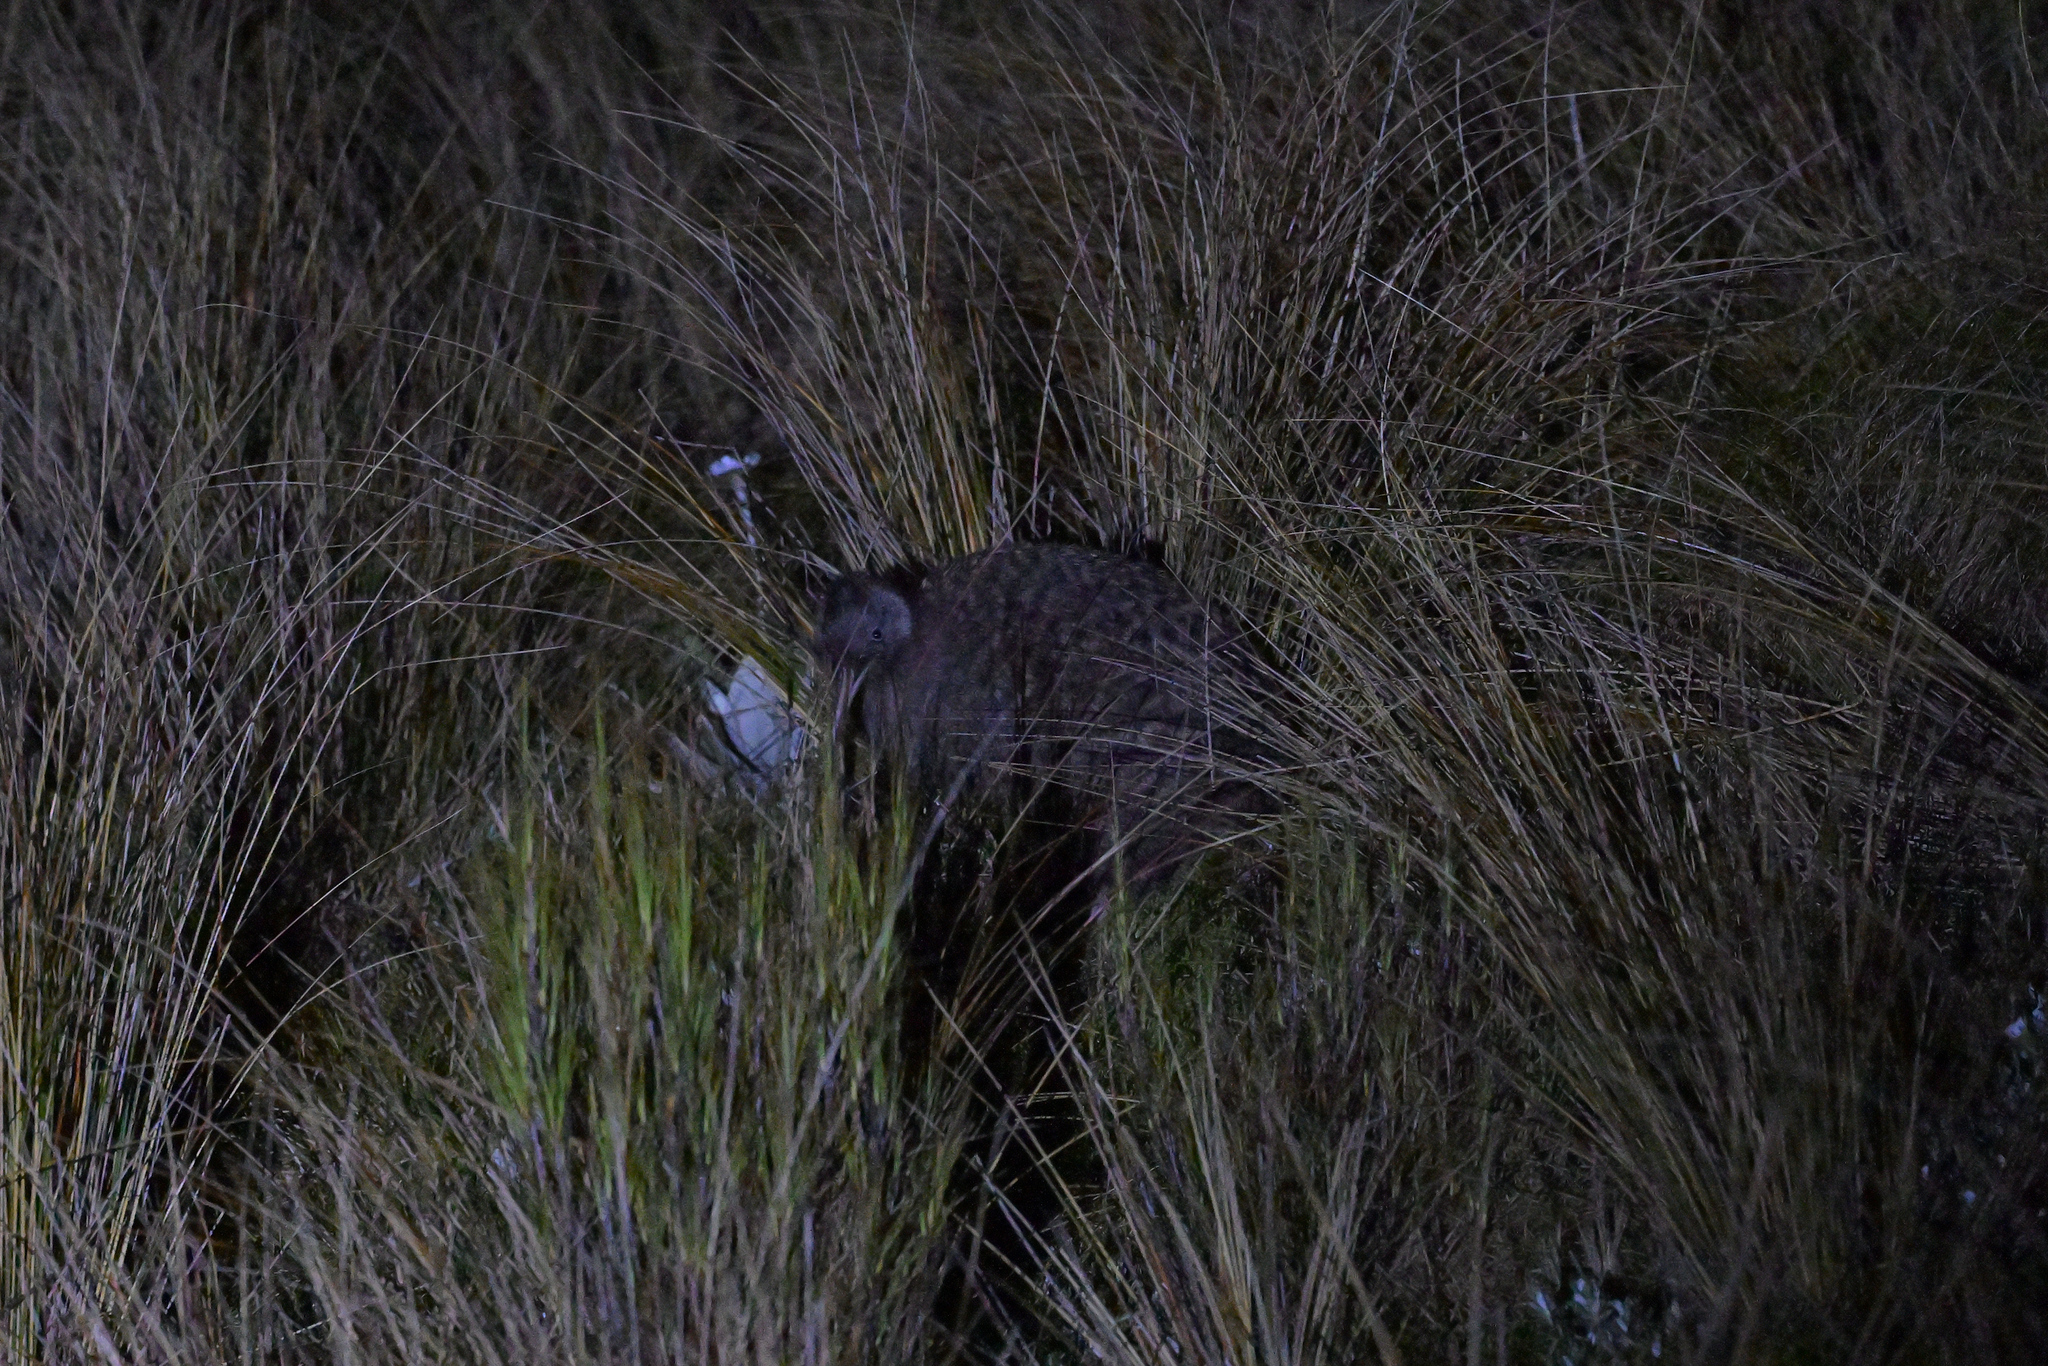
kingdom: Animalia
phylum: Chordata
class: Aves
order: Apterygiformes
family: Apterygidae
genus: Apteryx
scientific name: Apteryx haastii
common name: Great spotted kiwi
